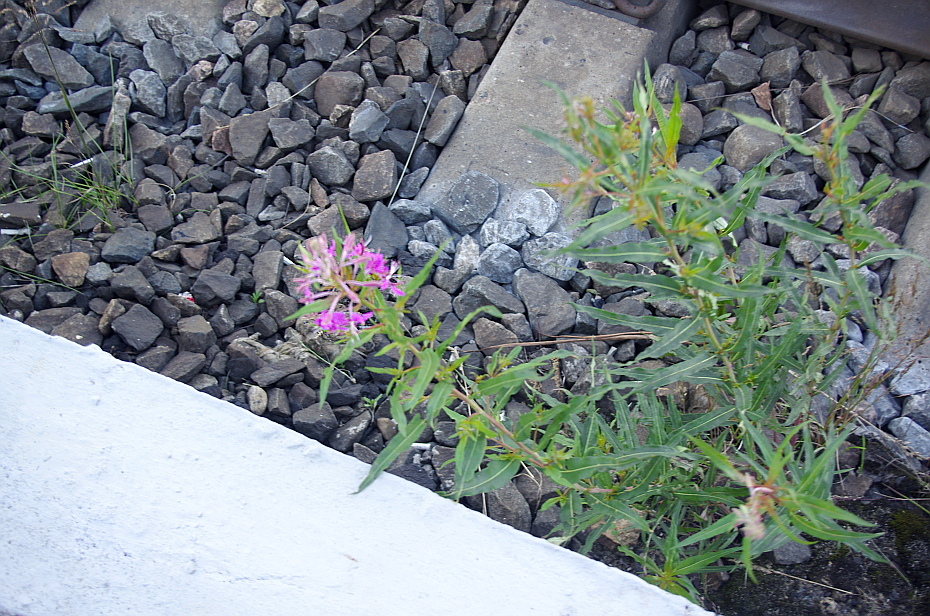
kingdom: Plantae
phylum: Tracheophyta
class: Magnoliopsida
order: Myrtales
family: Onagraceae
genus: Chamaenerion
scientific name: Chamaenerion angustifolium
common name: Fireweed
